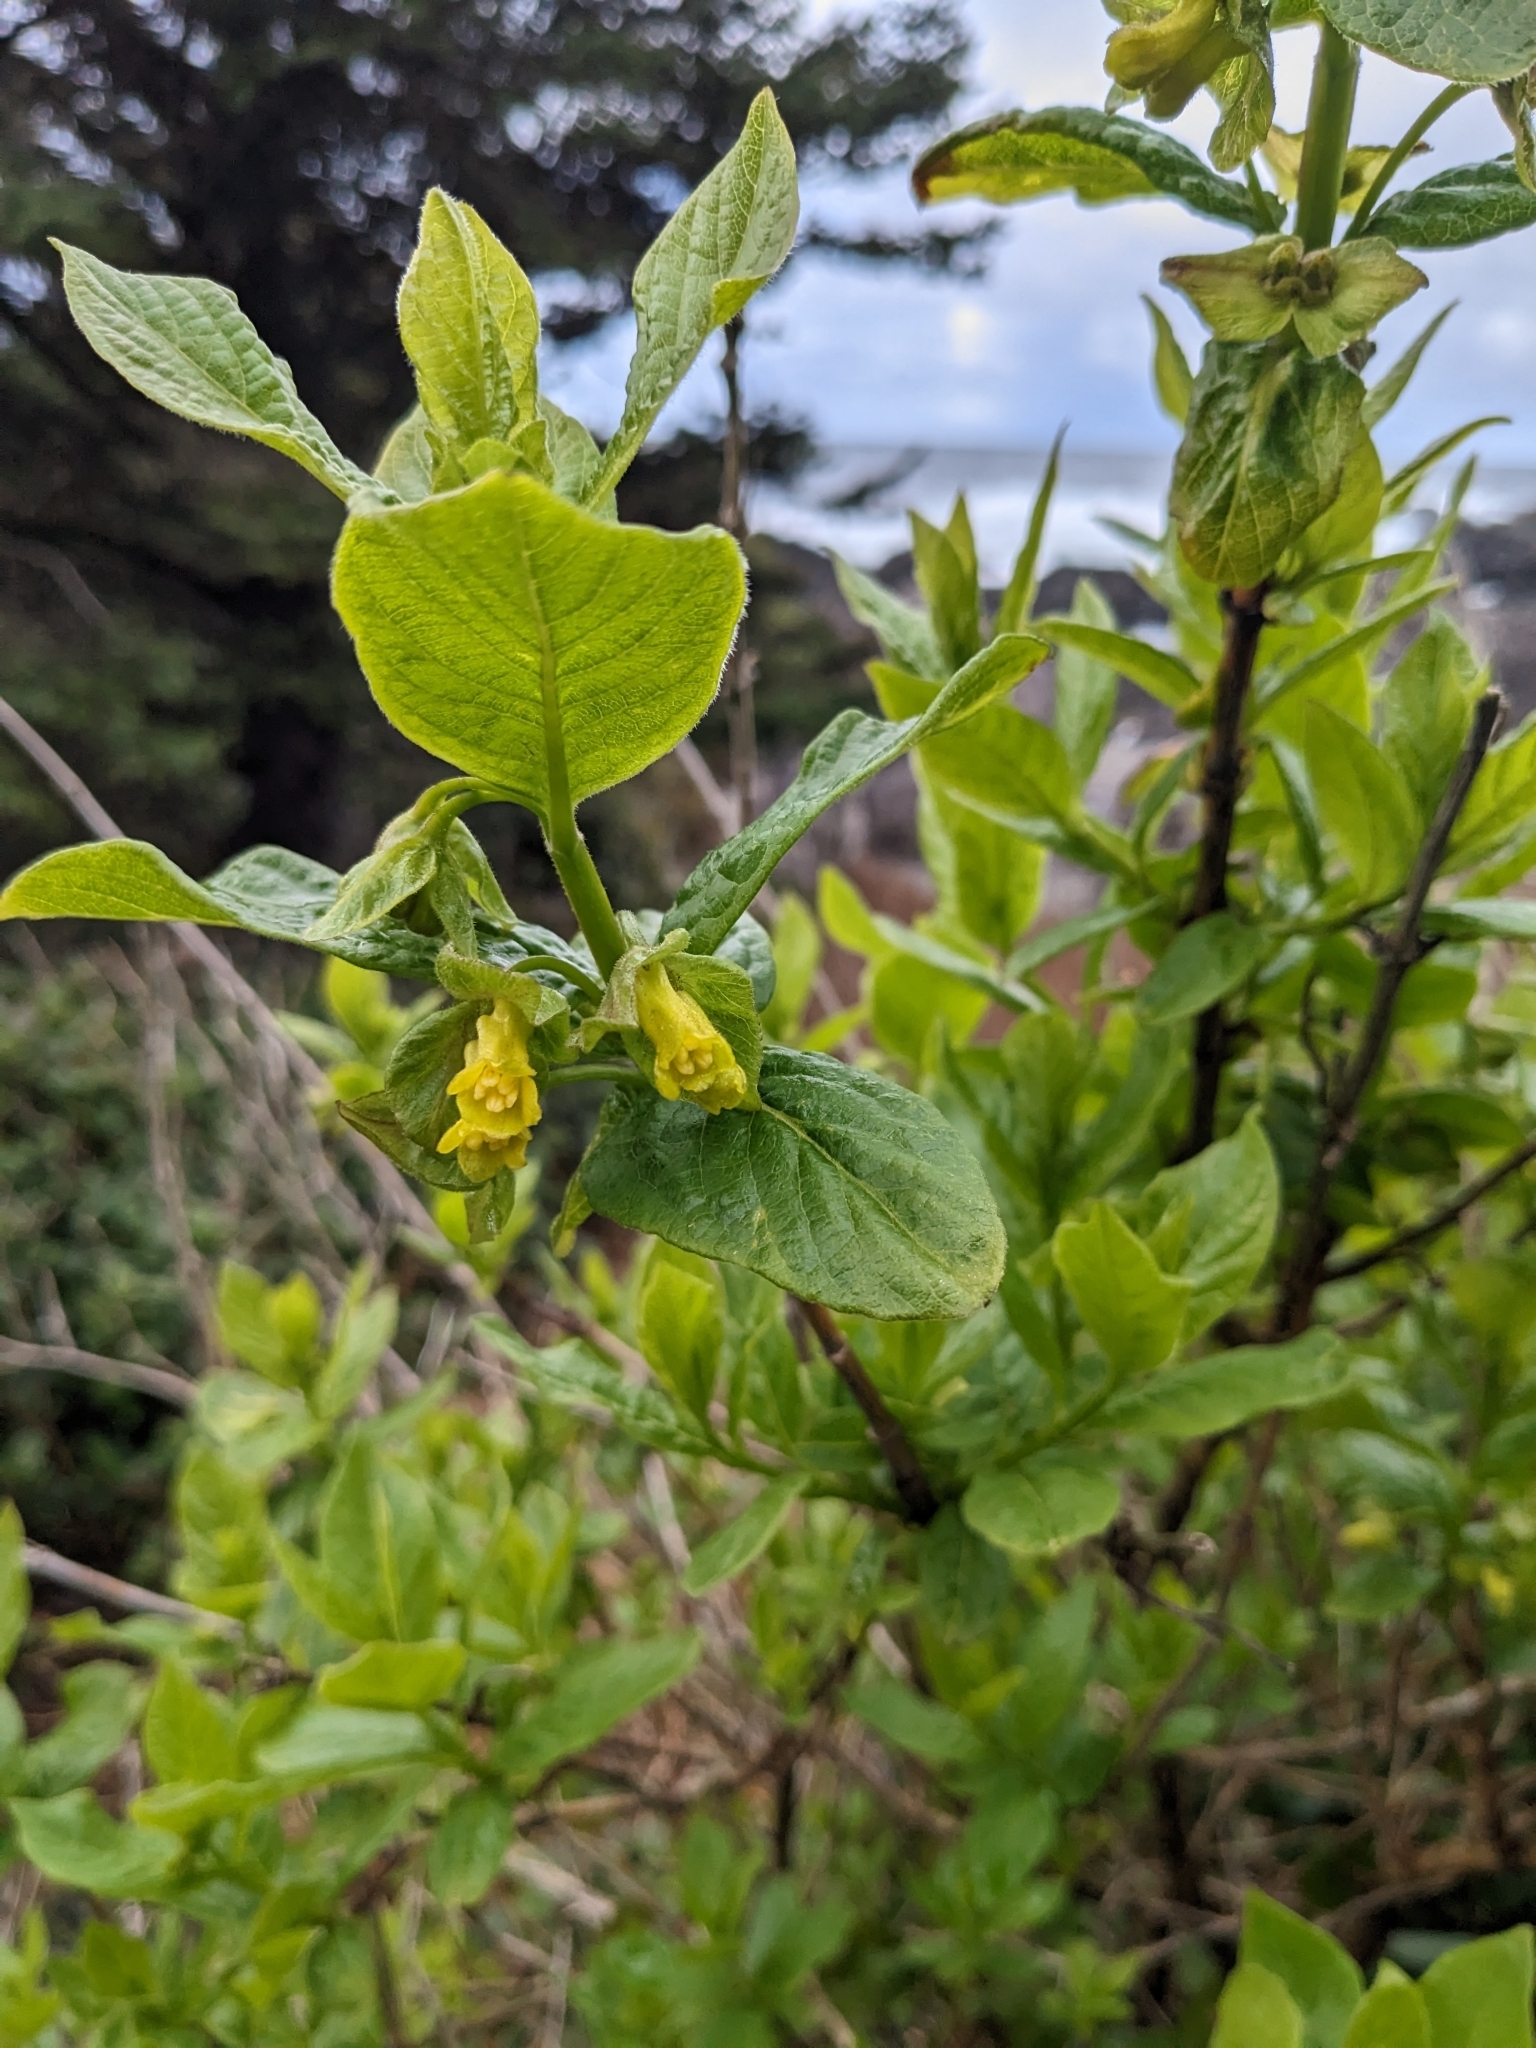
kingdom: Plantae
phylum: Tracheophyta
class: Magnoliopsida
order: Dipsacales
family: Caprifoliaceae
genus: Lonicera
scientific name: Lonicera involucrata
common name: Californian honeysuckle
